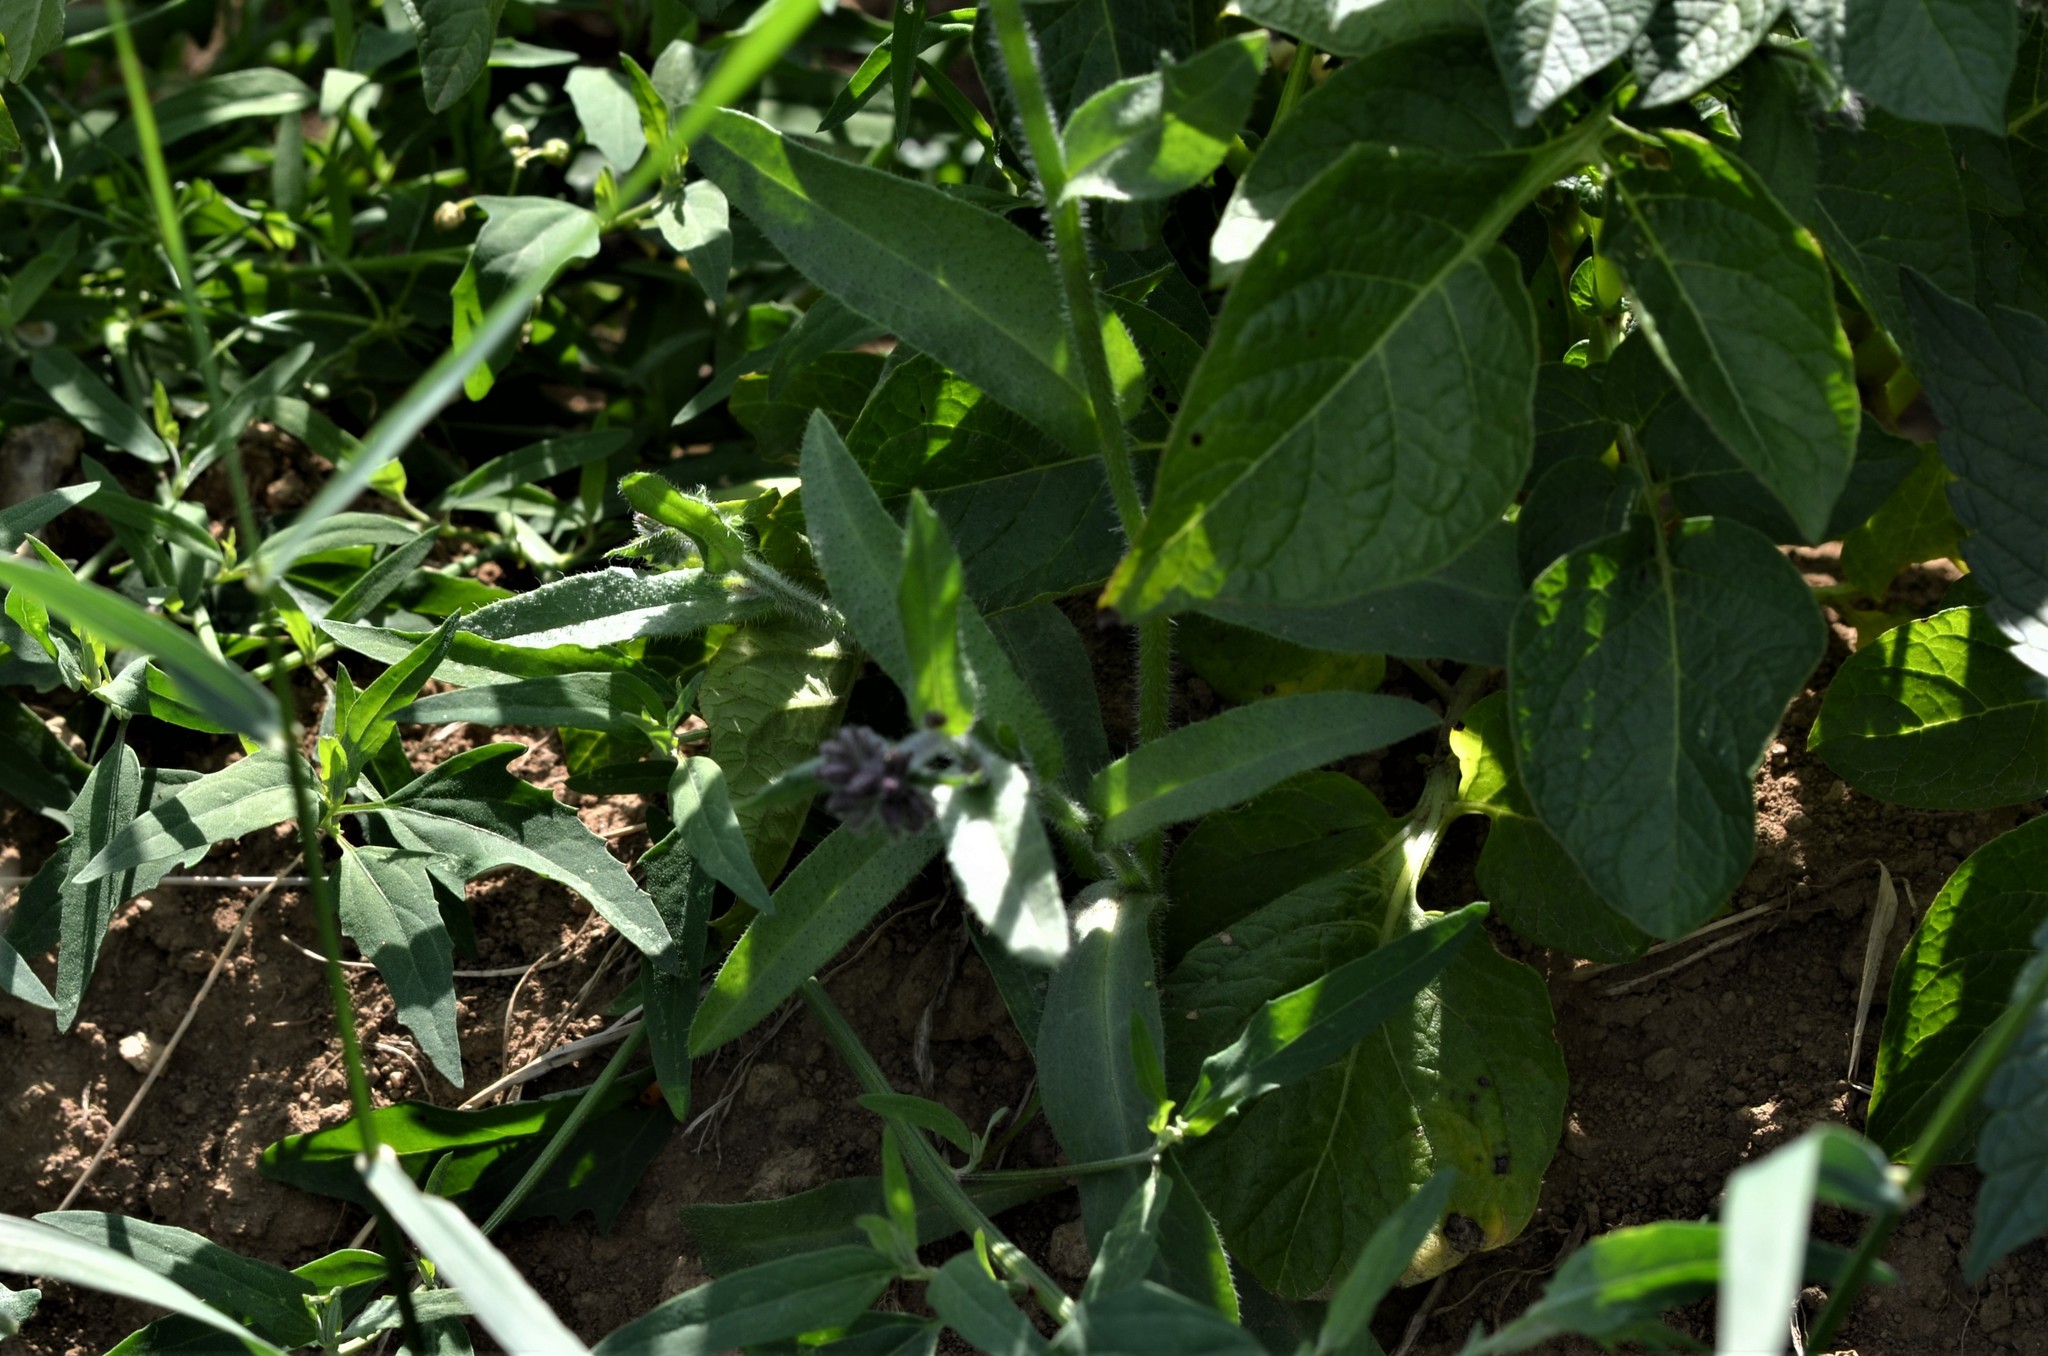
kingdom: Plantae
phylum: Tracheophyta
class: Magnoliopsida
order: Boraginales
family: Boraginaceae
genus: Anchusa
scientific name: Anchusa officinalis
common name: Alkanet
